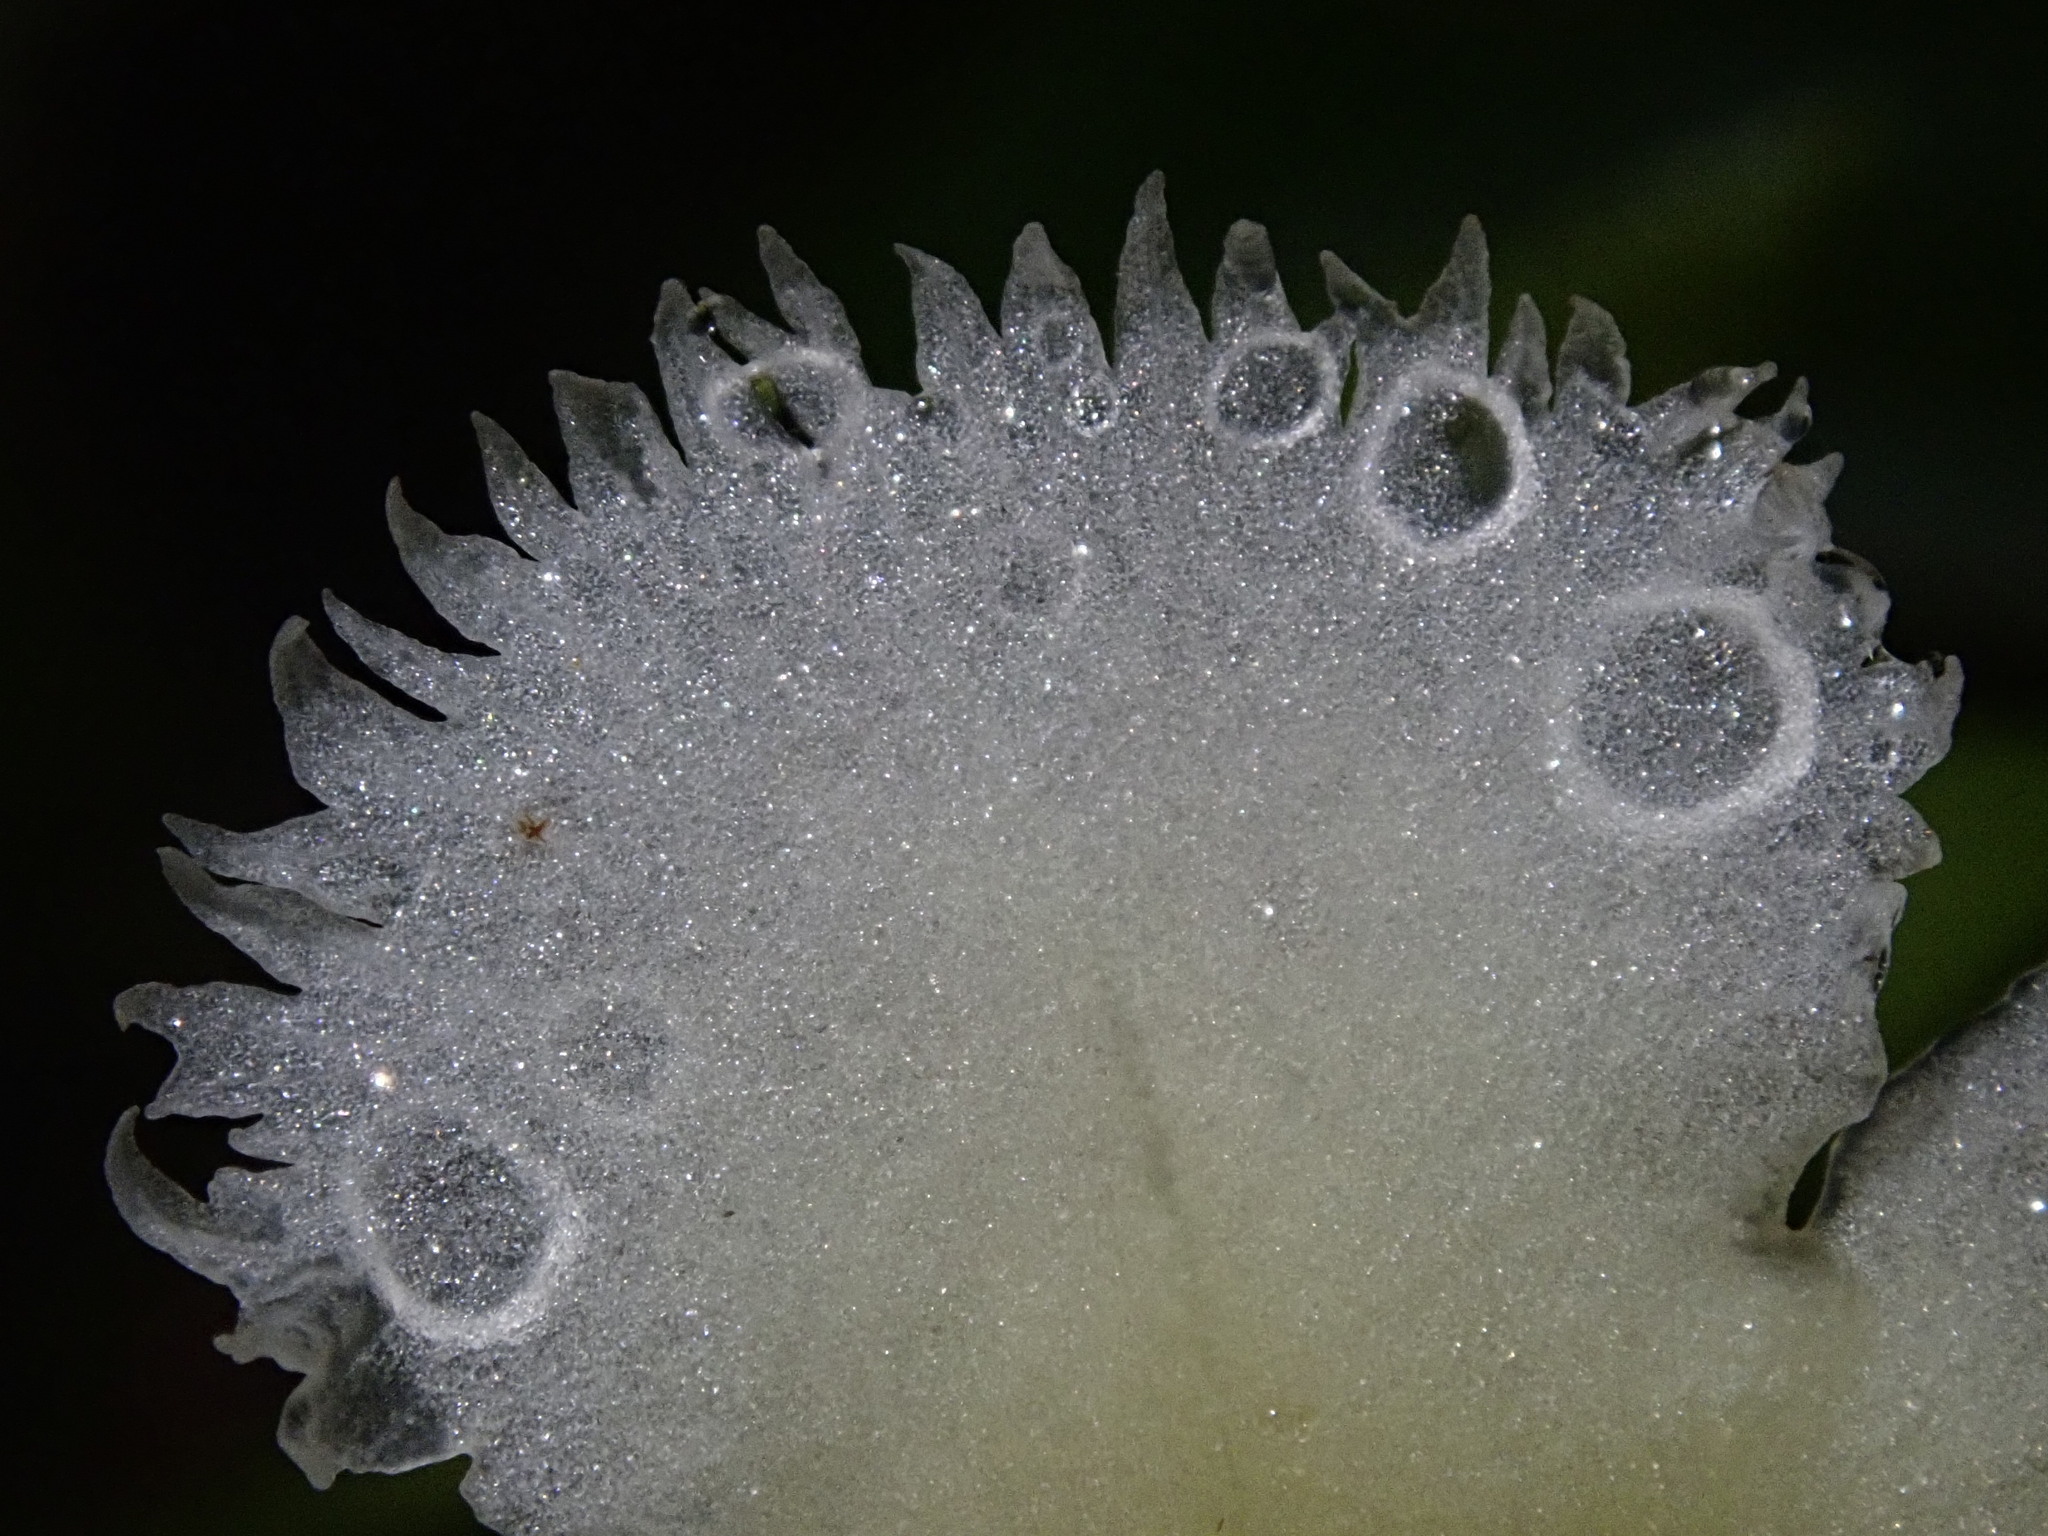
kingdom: Plantae
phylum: Tracheophyta
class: Magnoliopsida
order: Lamiales
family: Gesneriaceae
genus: Drymonia
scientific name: Drymonia lanceolata
